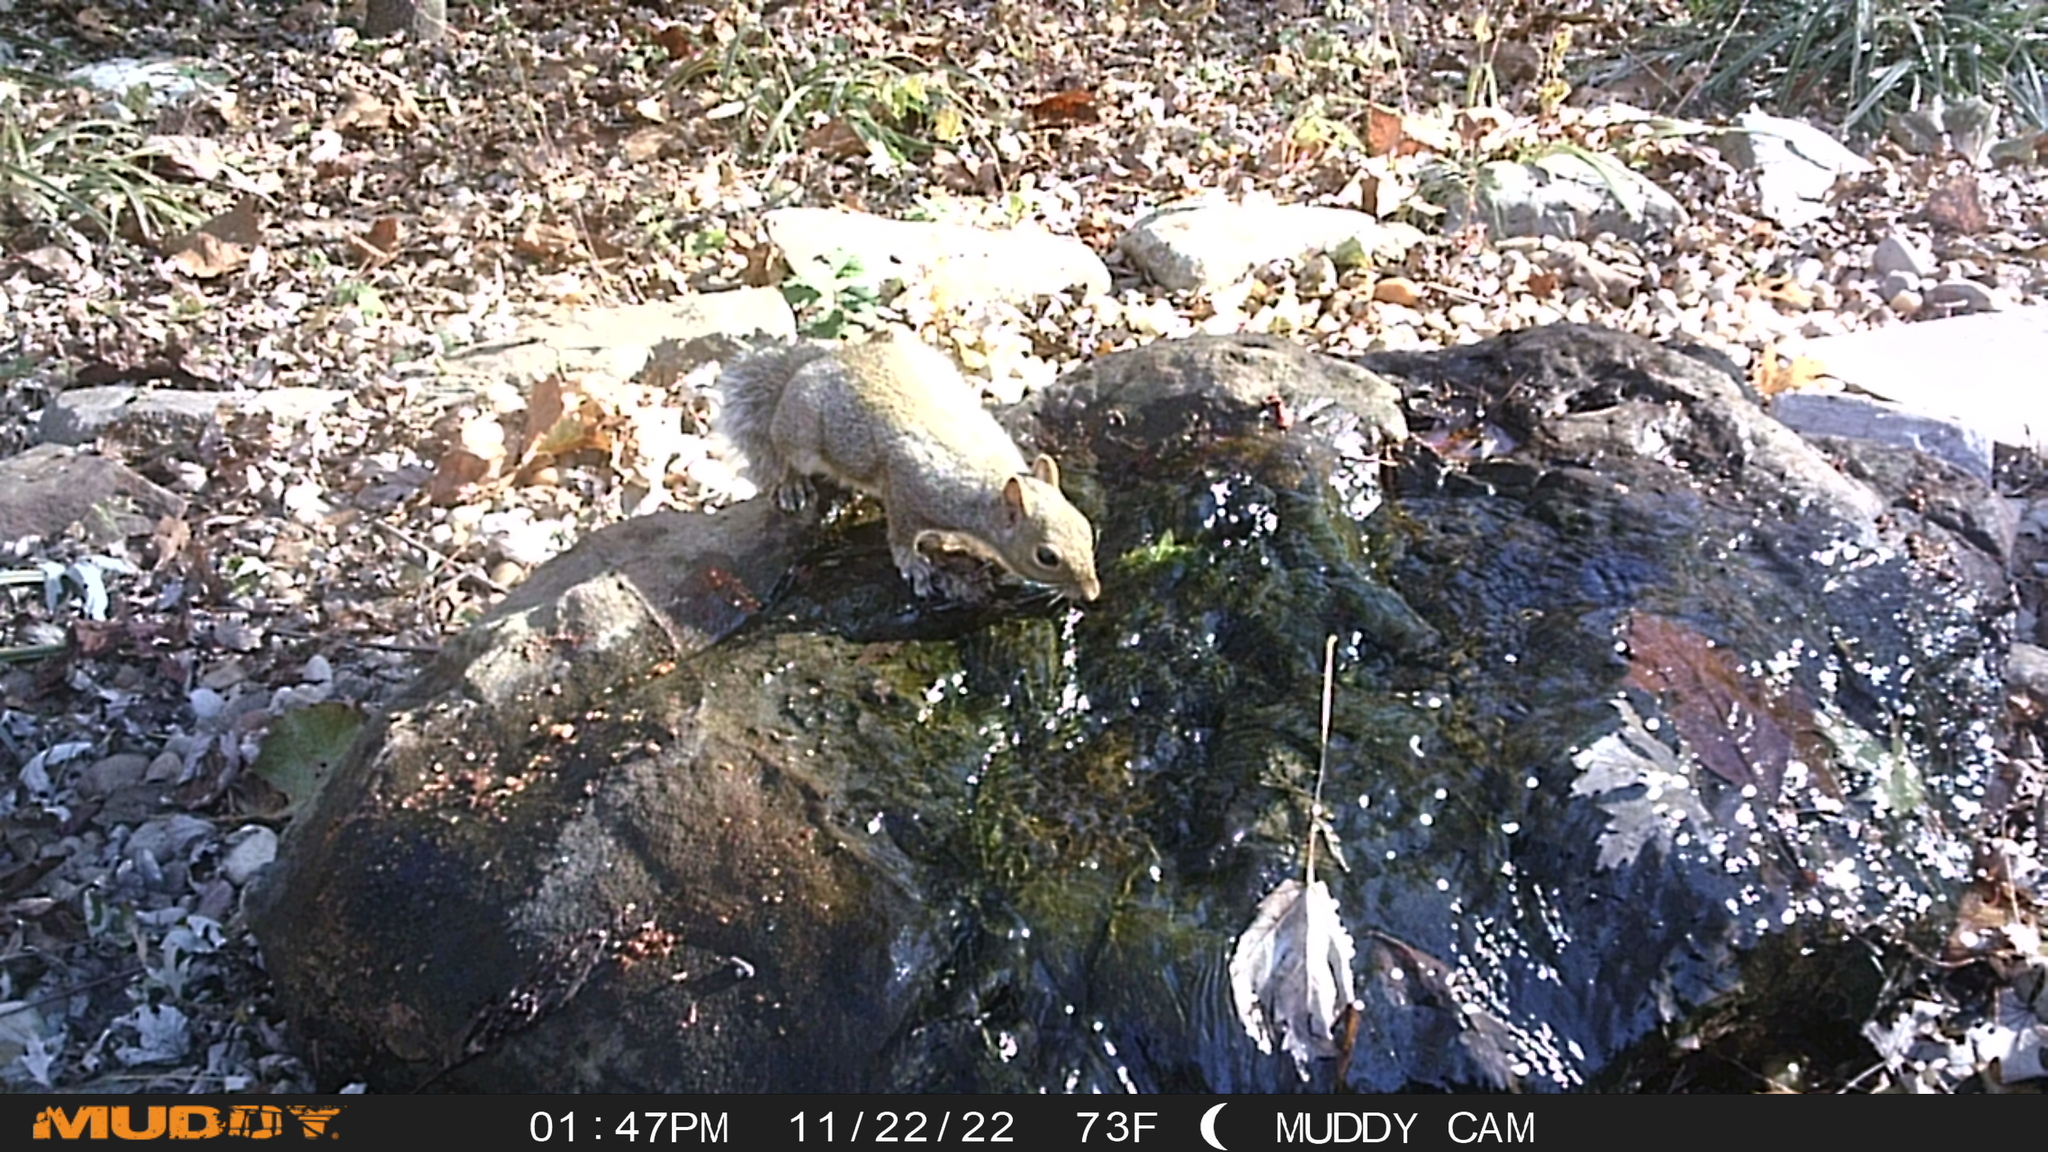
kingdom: Animalia
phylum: Chordata
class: Mammalia
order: Rodentia
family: Sciuridae
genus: Sciurus
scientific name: Sciurus carolinensis
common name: Eastern gray squirrel
